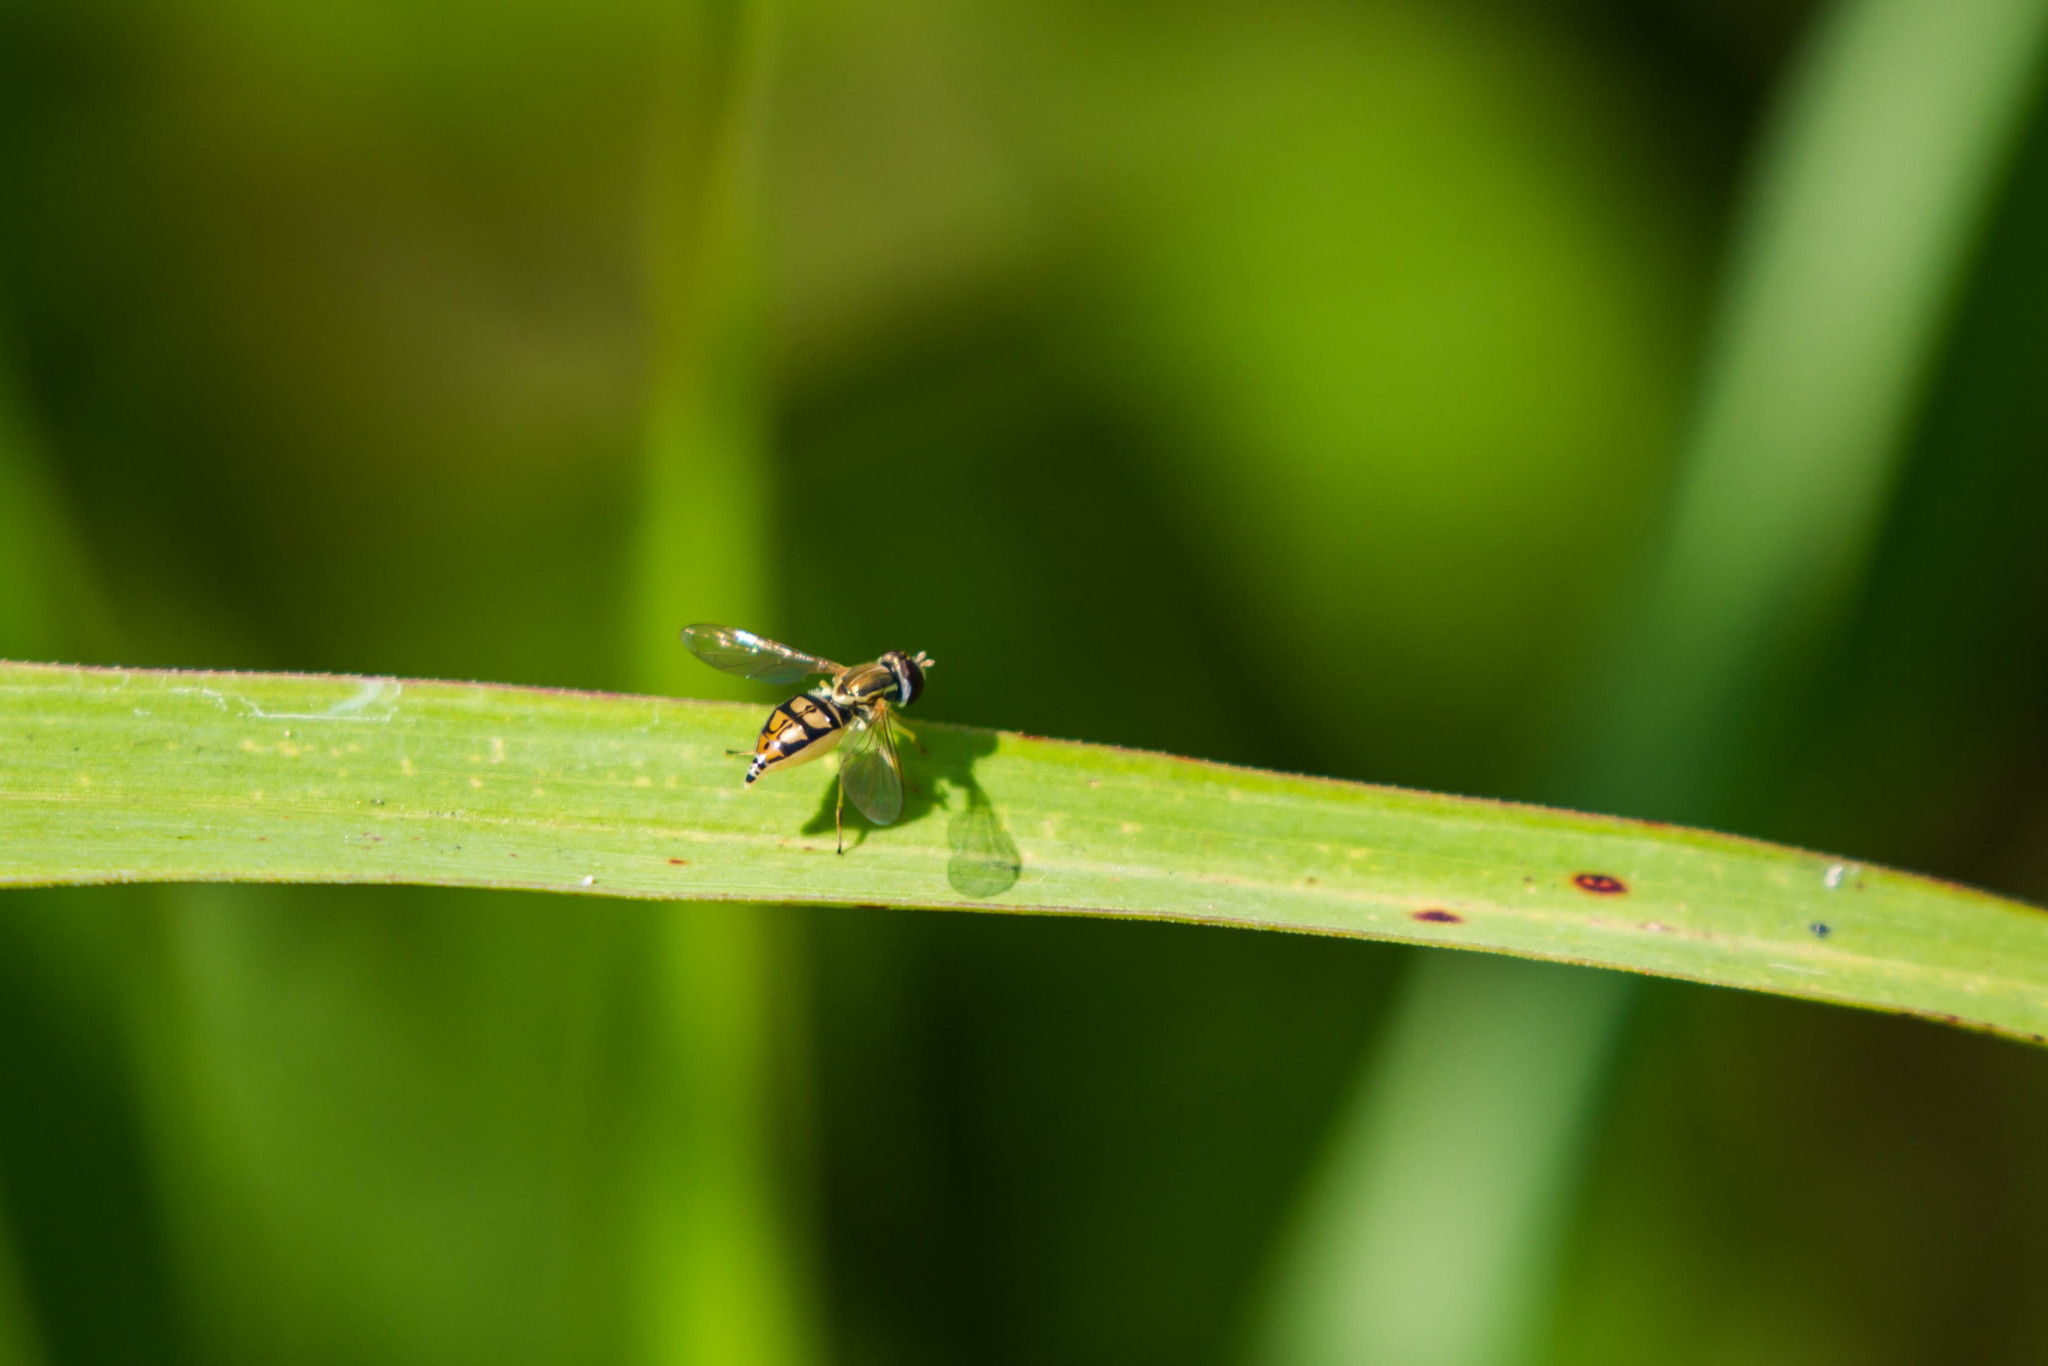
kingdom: Animalia
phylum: Arthropoda
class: Insecta
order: Diptera
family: Syrphidae
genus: Toxomerus
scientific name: Toxomerus marginatus
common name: Syrphid fly
